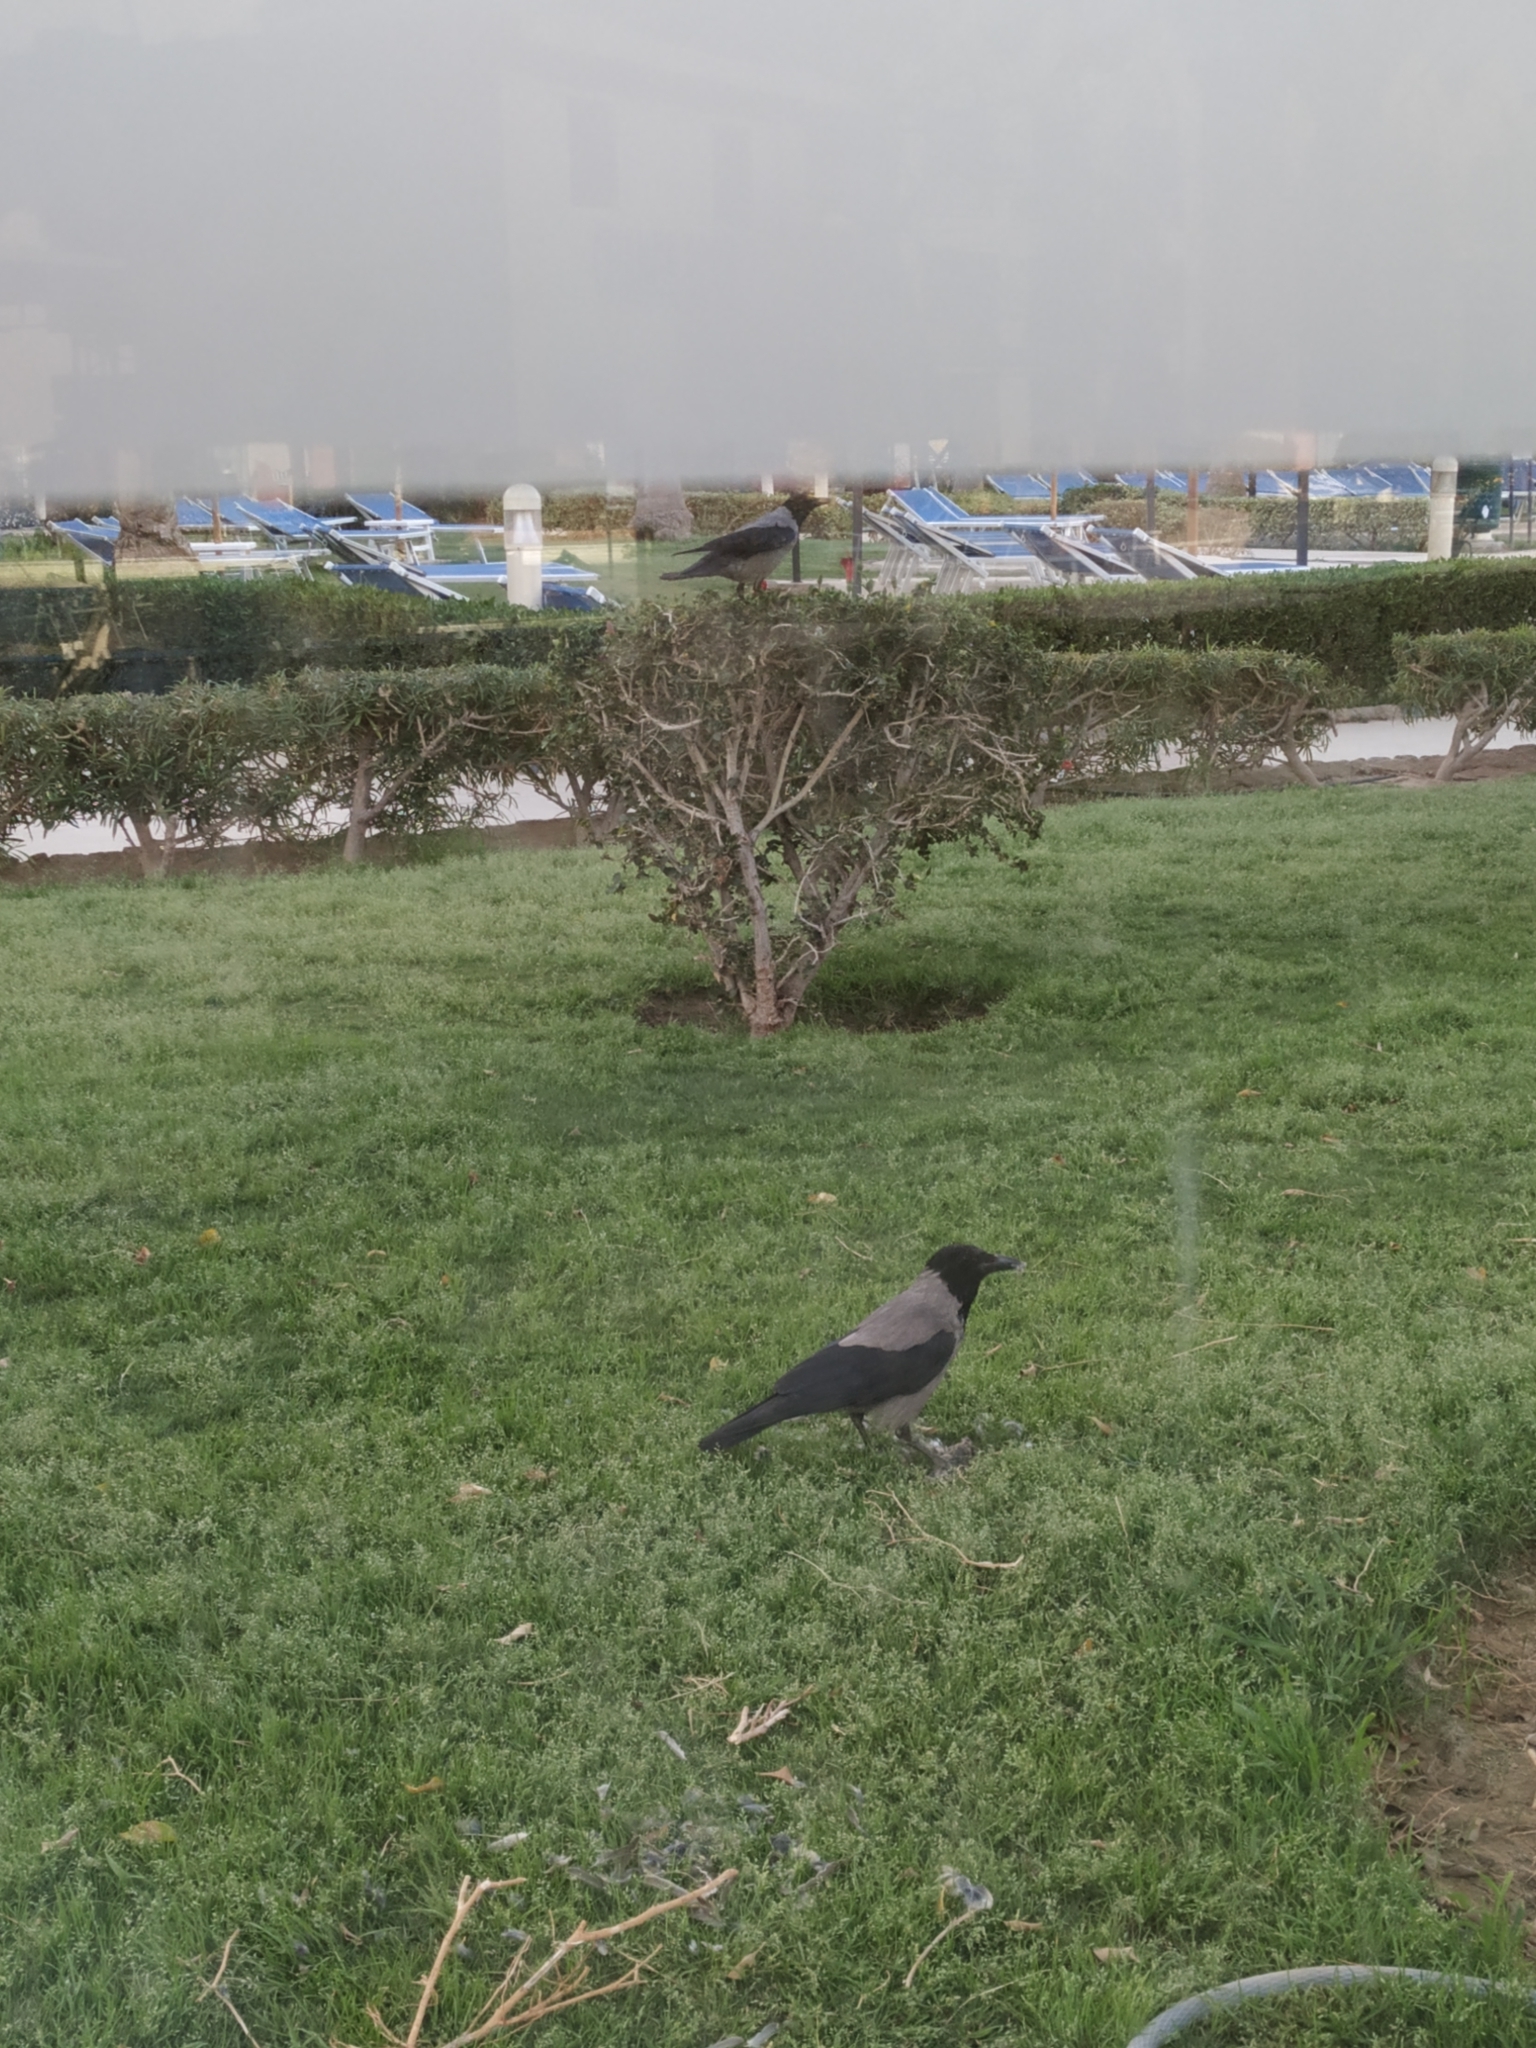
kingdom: Animalia
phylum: Chordata
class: Aves
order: Passeriformes
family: Corvidae
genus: Corvus
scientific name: Corvus cornix
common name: Hooded crow
